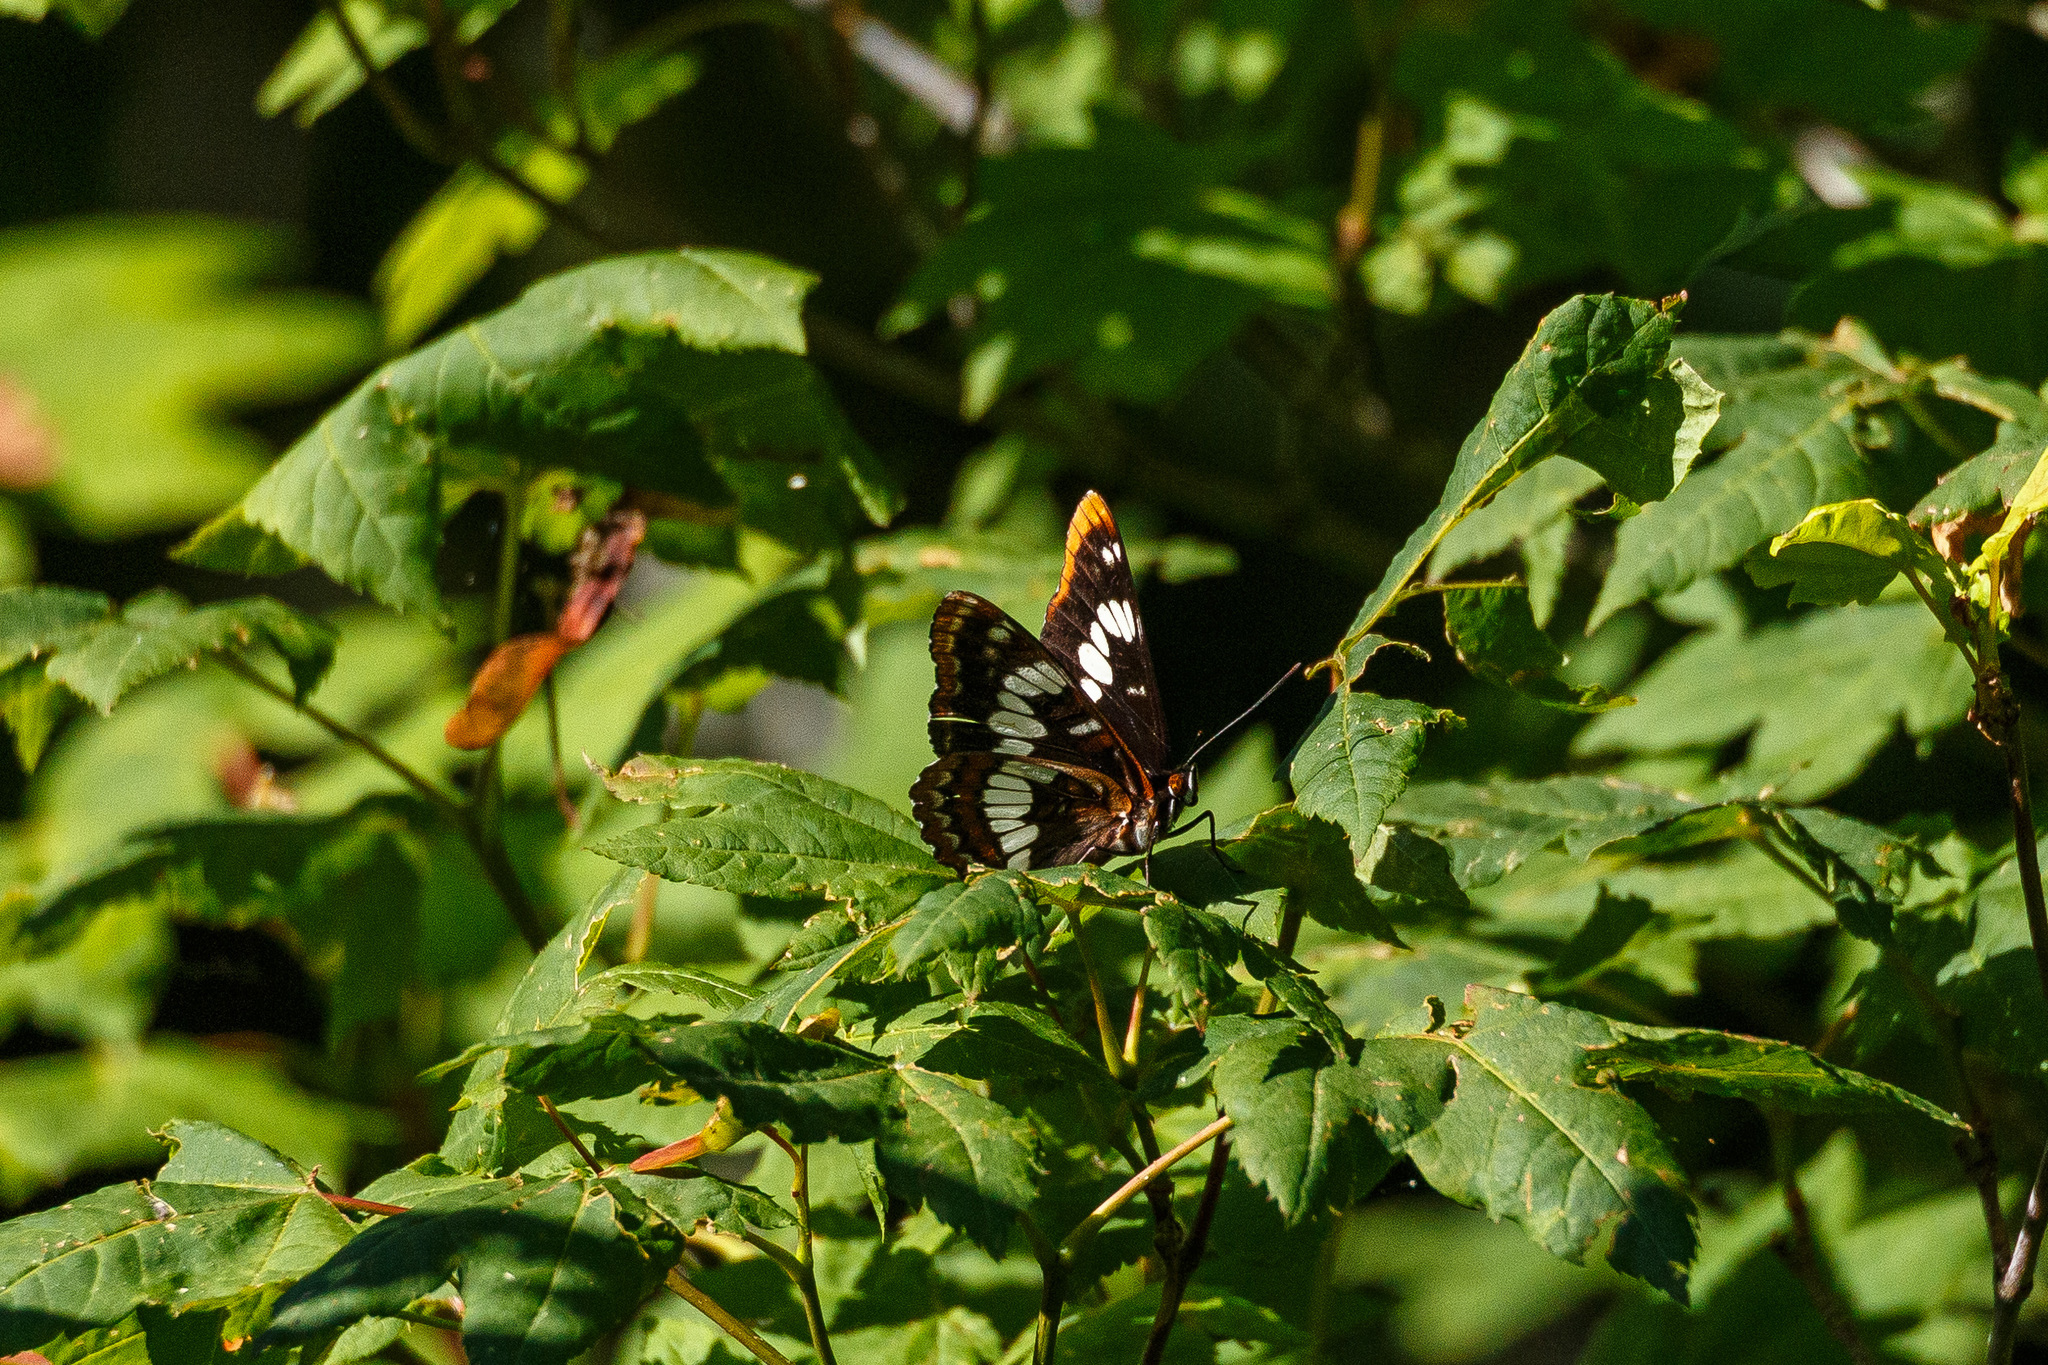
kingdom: Animalia
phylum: Arthropoda
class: Insecta
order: Lepidoptera
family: Nymphalidae
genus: Limenitis
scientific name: Limenitis lorquini
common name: Lorquin's admiral
